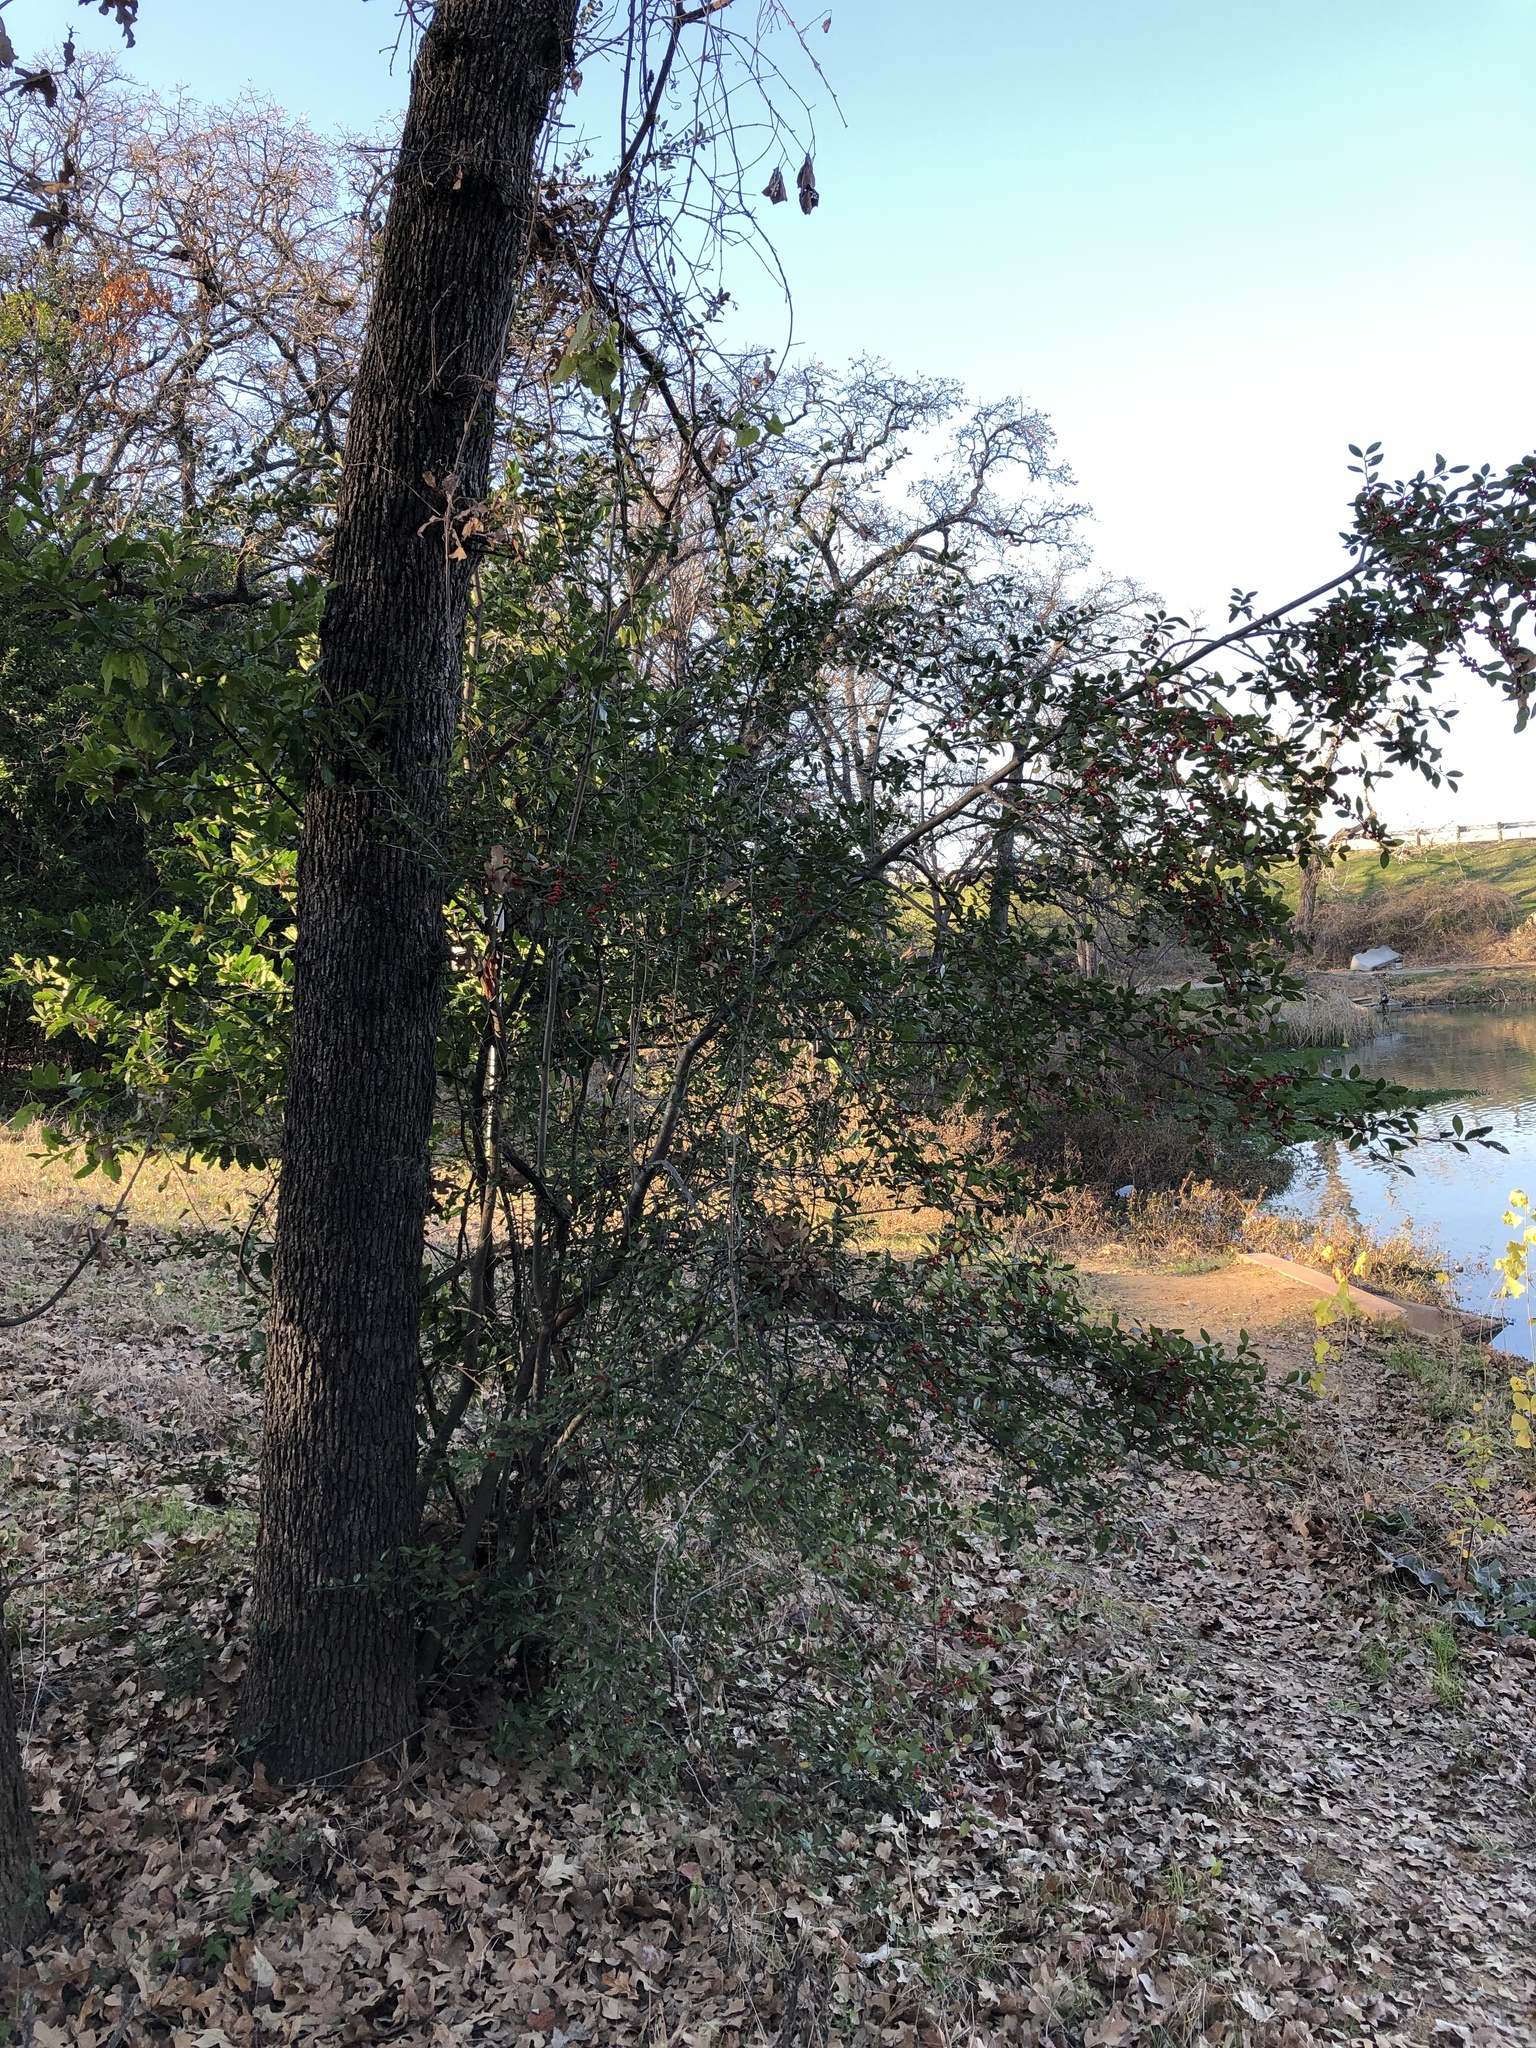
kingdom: Plantae
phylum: Tracheophyta
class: Magnoliopsida
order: Aquifoliales
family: Aquifoliaceae
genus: Ilex
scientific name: Ilex vomitoria
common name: Yaupon holly
